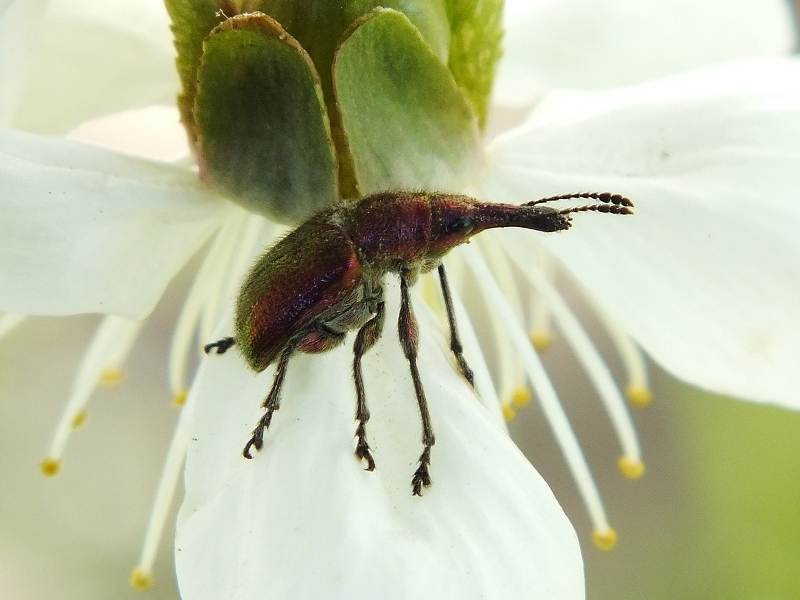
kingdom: Animalia
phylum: Arthropoda
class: Insecta
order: Coleoptera
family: Attelabidae
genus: Rhynchites
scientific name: Rhynchites auratus
